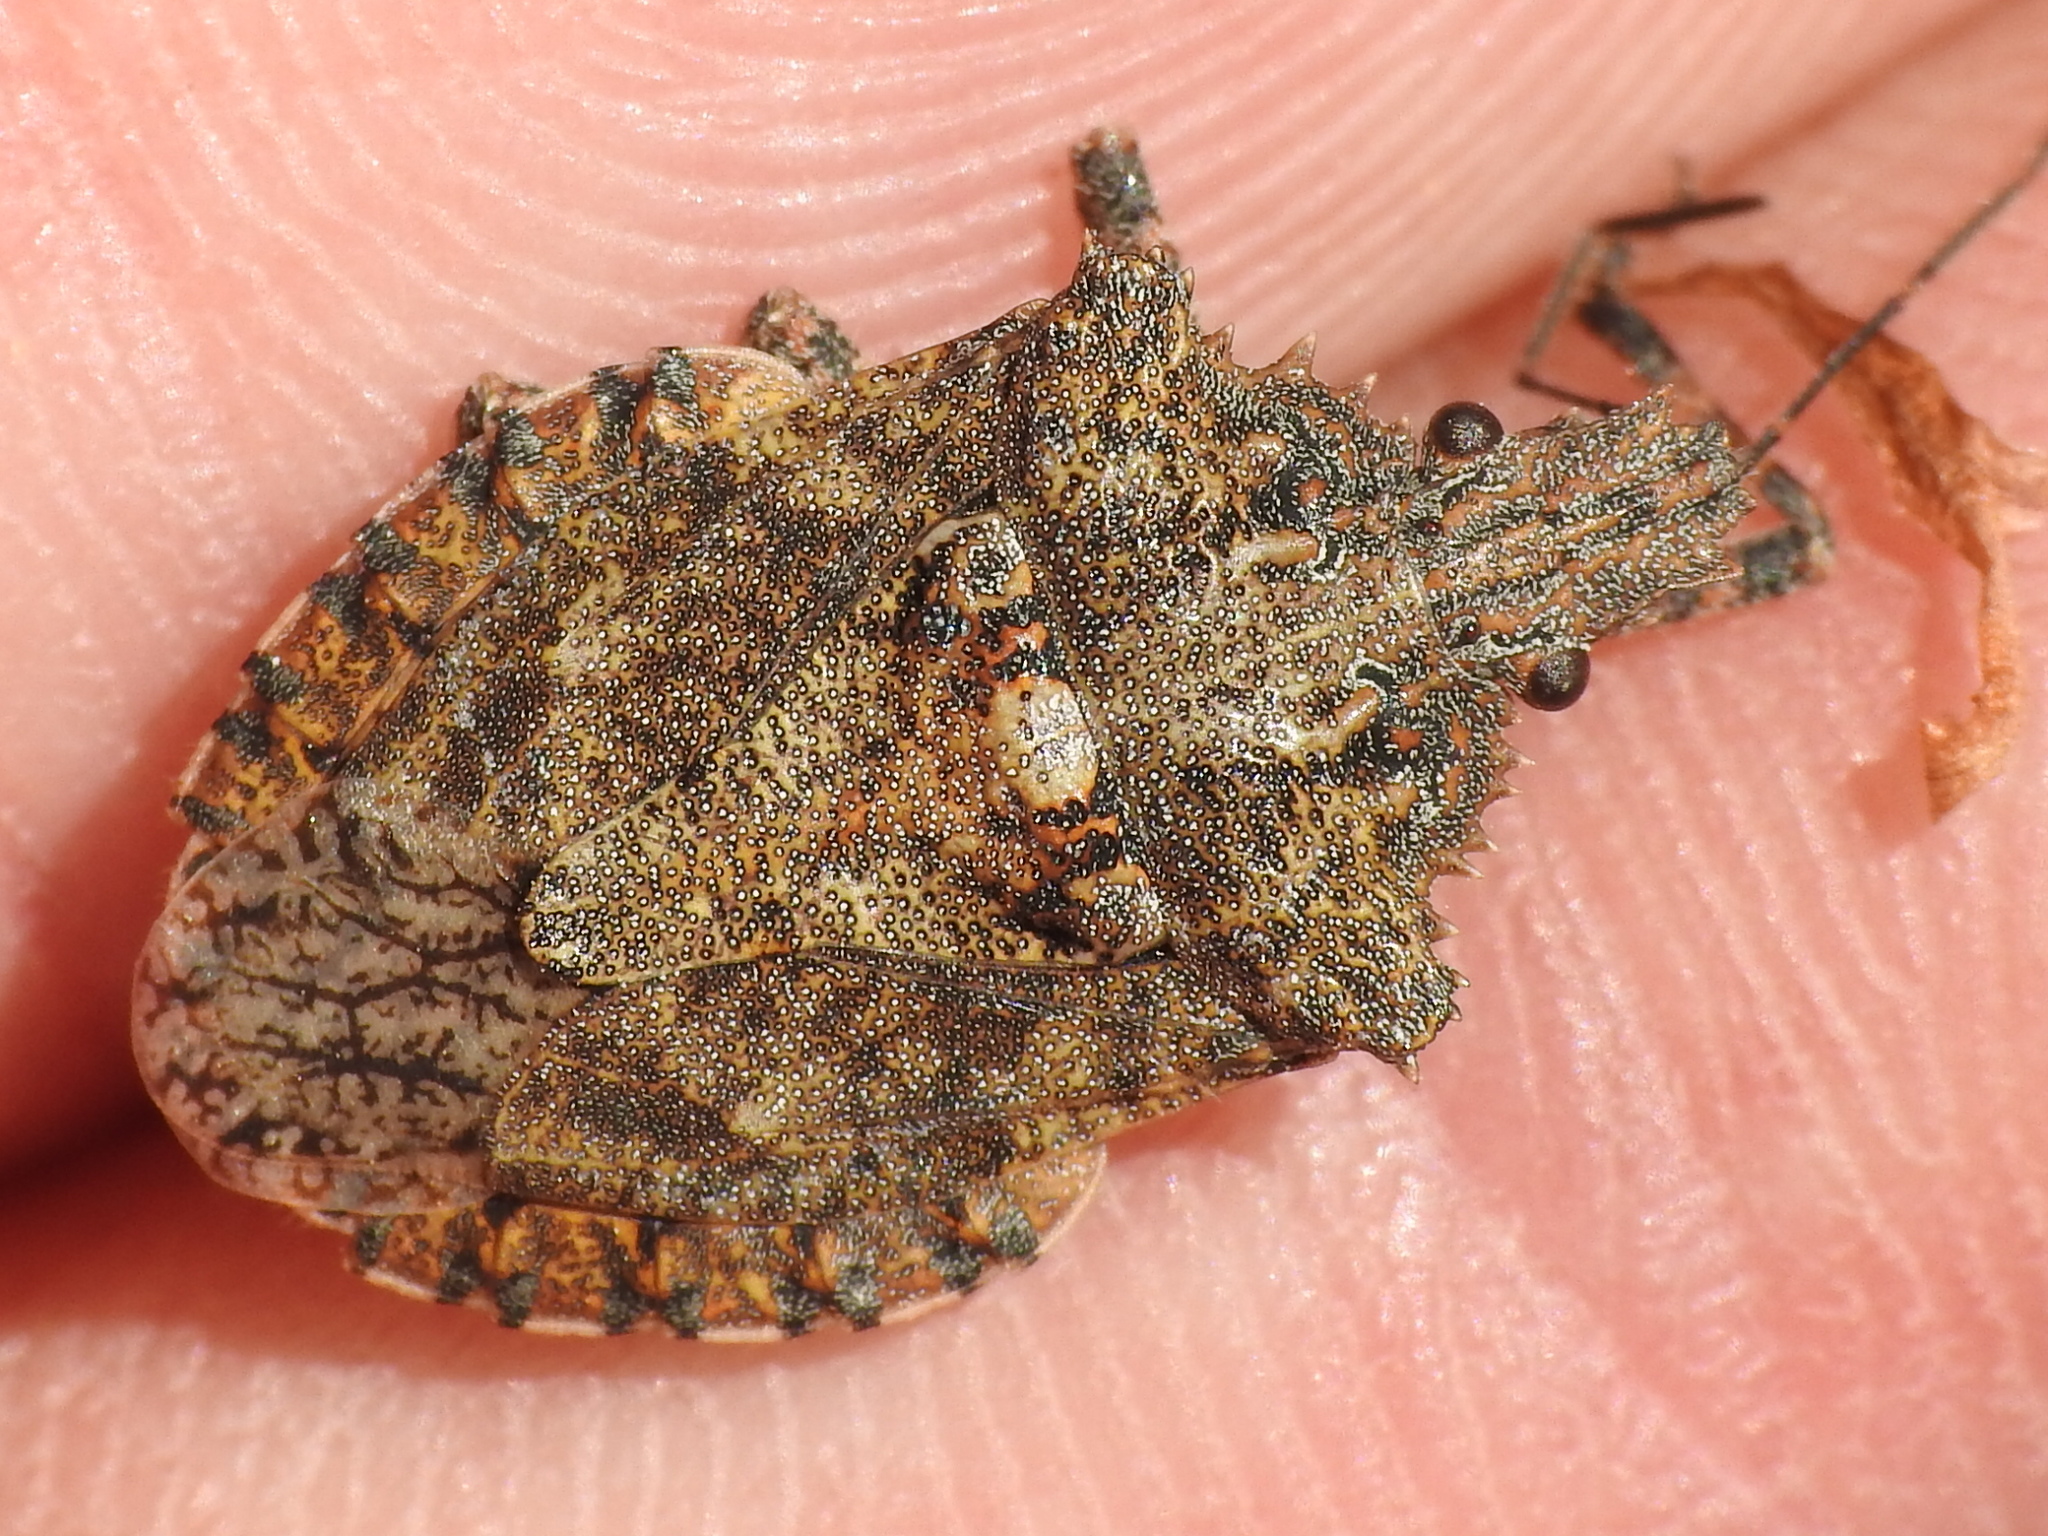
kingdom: Animalia
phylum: Arthropoda
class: Insecta
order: Hemiptera
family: Pentatomidae
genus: Brochymena
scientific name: Brochymena arborea
